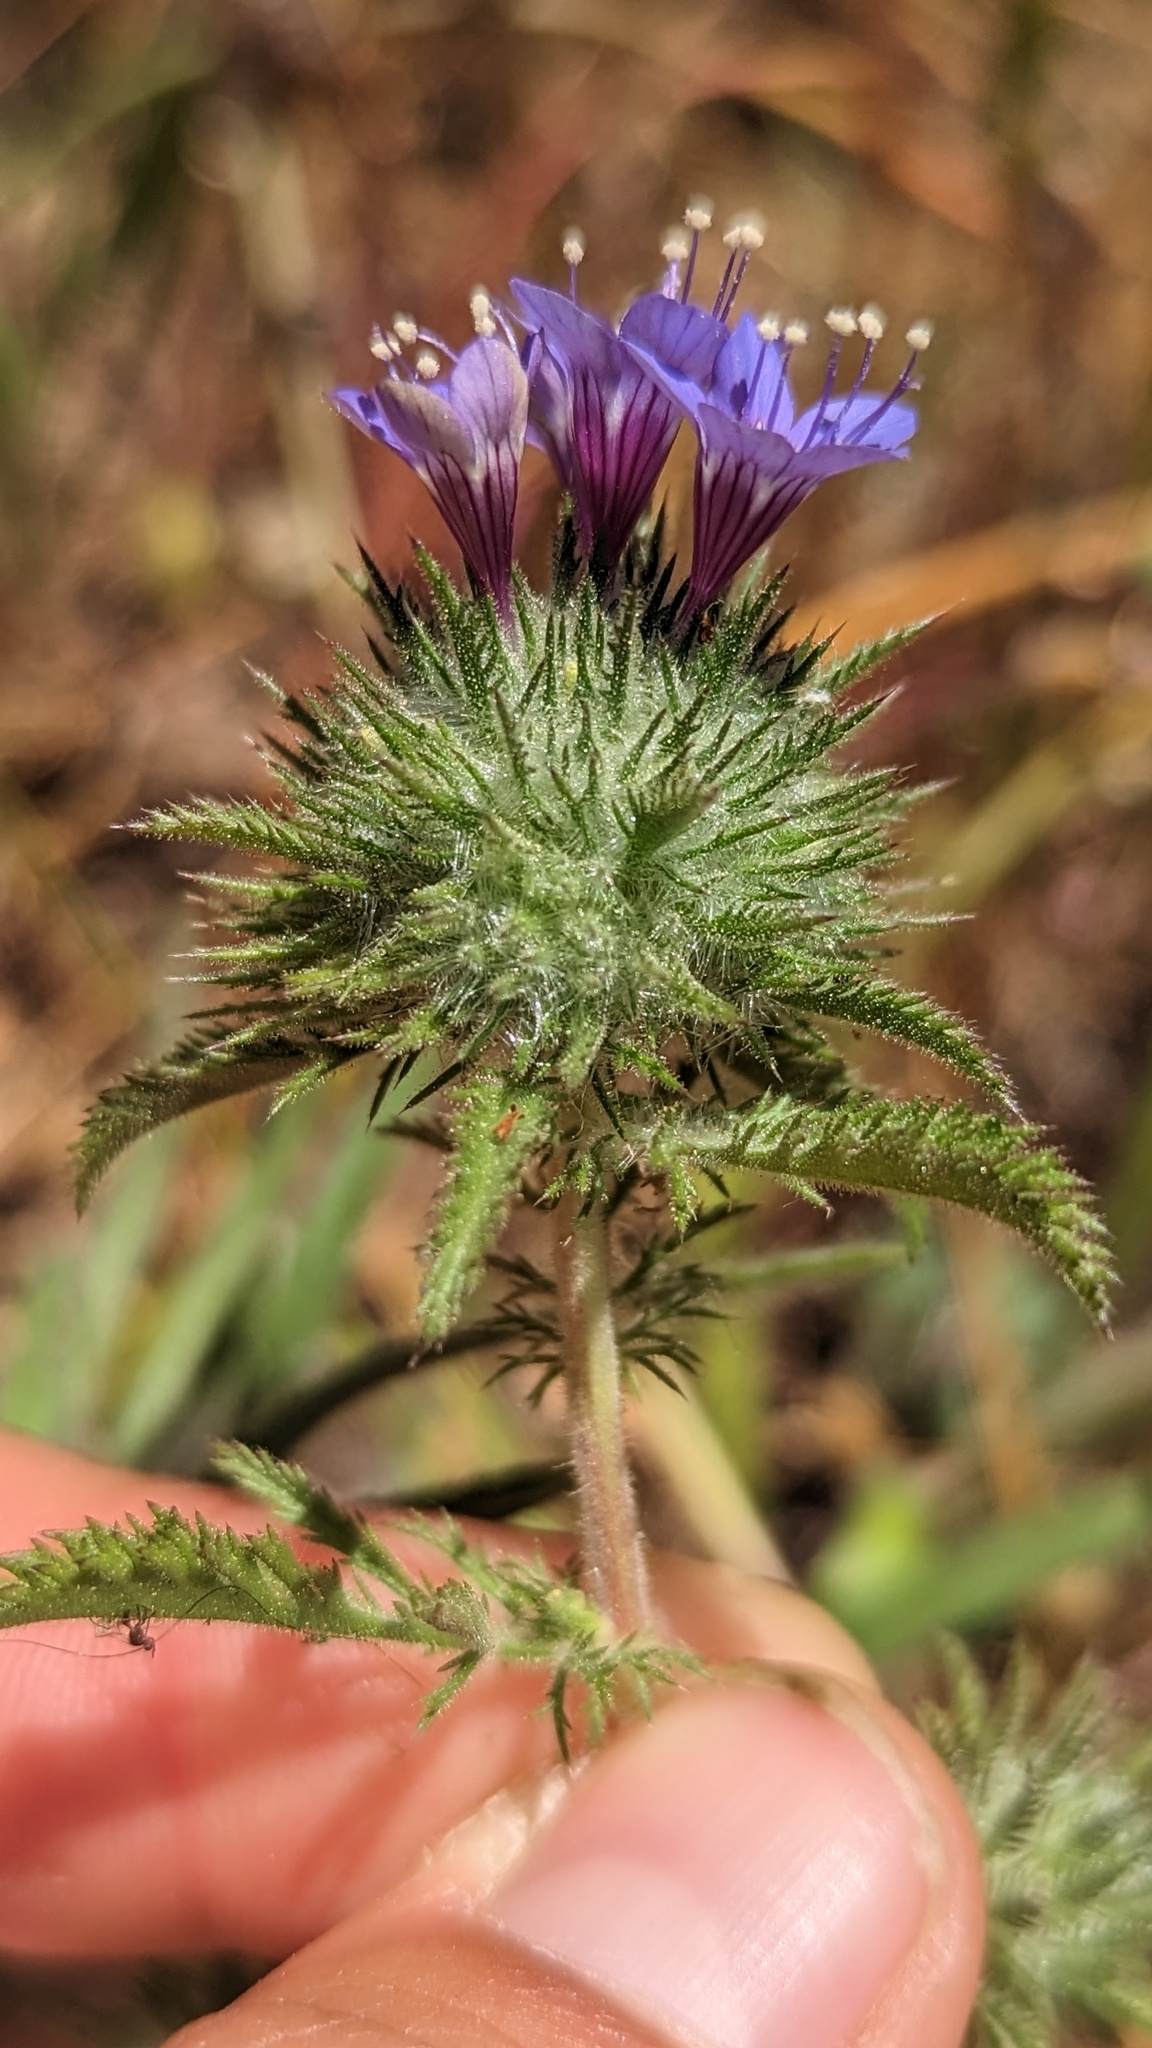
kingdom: Plantae
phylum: Tracheophyta
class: Magnoliopsida
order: Ericales
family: Polemoniaceae
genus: Navarretia
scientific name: Navarretia pubescens
